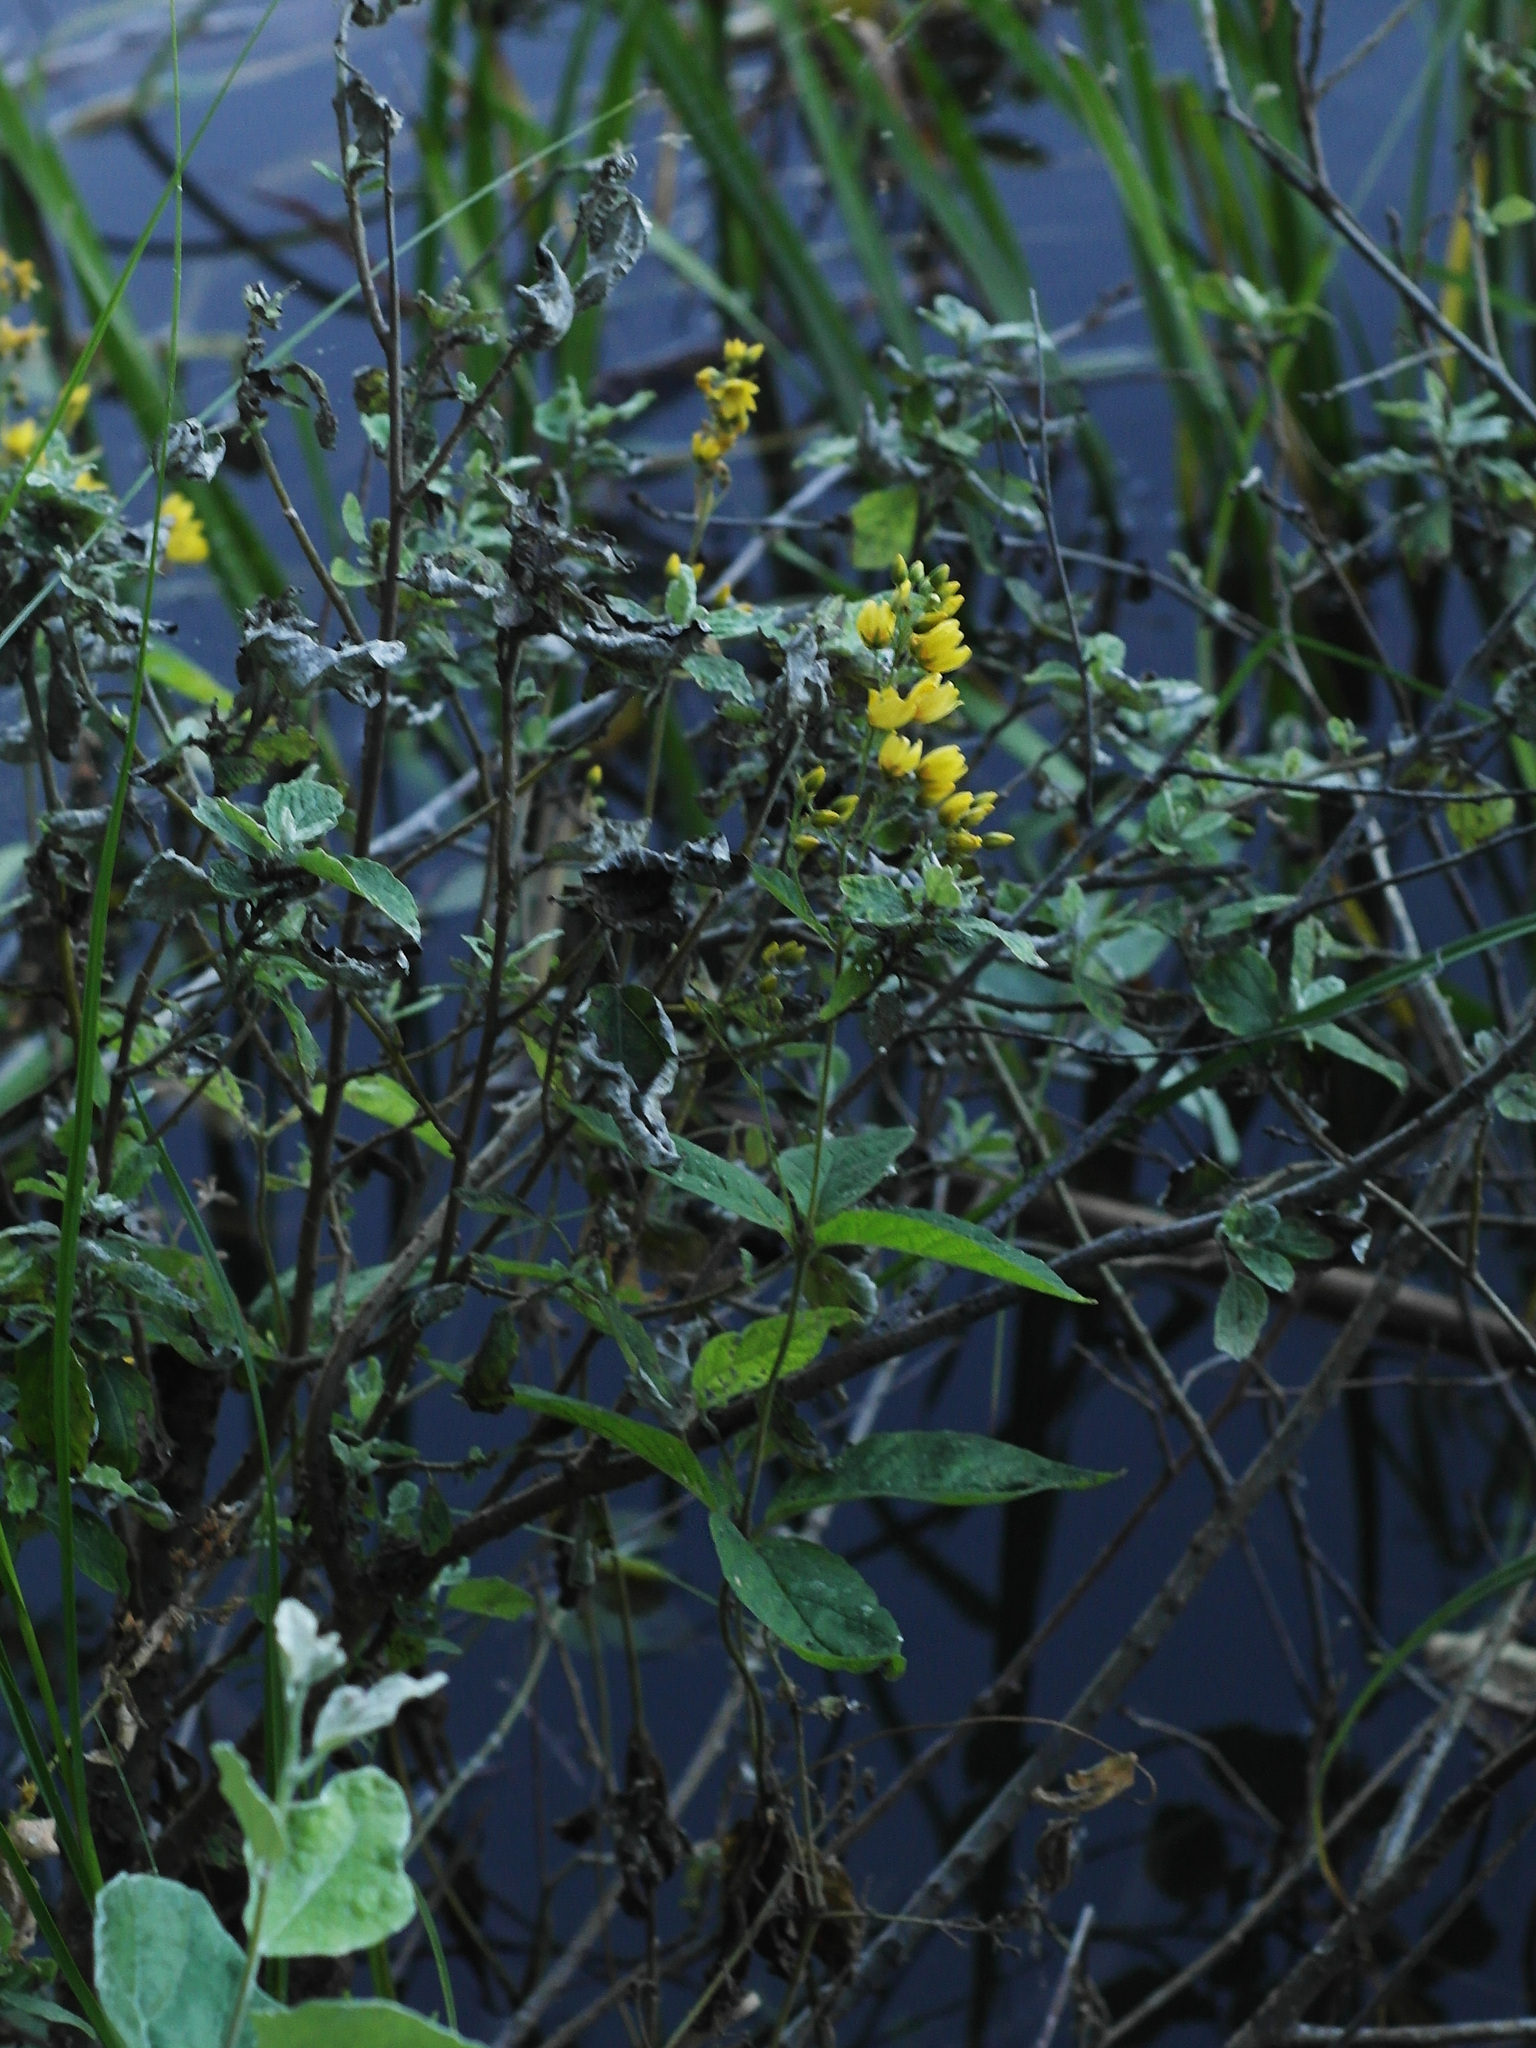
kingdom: Plantae
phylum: Tracheophyta
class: Magnoliopsida
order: Ericales
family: Primulaceae
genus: Lysimachia
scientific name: Lysimachia vulgaris
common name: Yellow loosestrife
